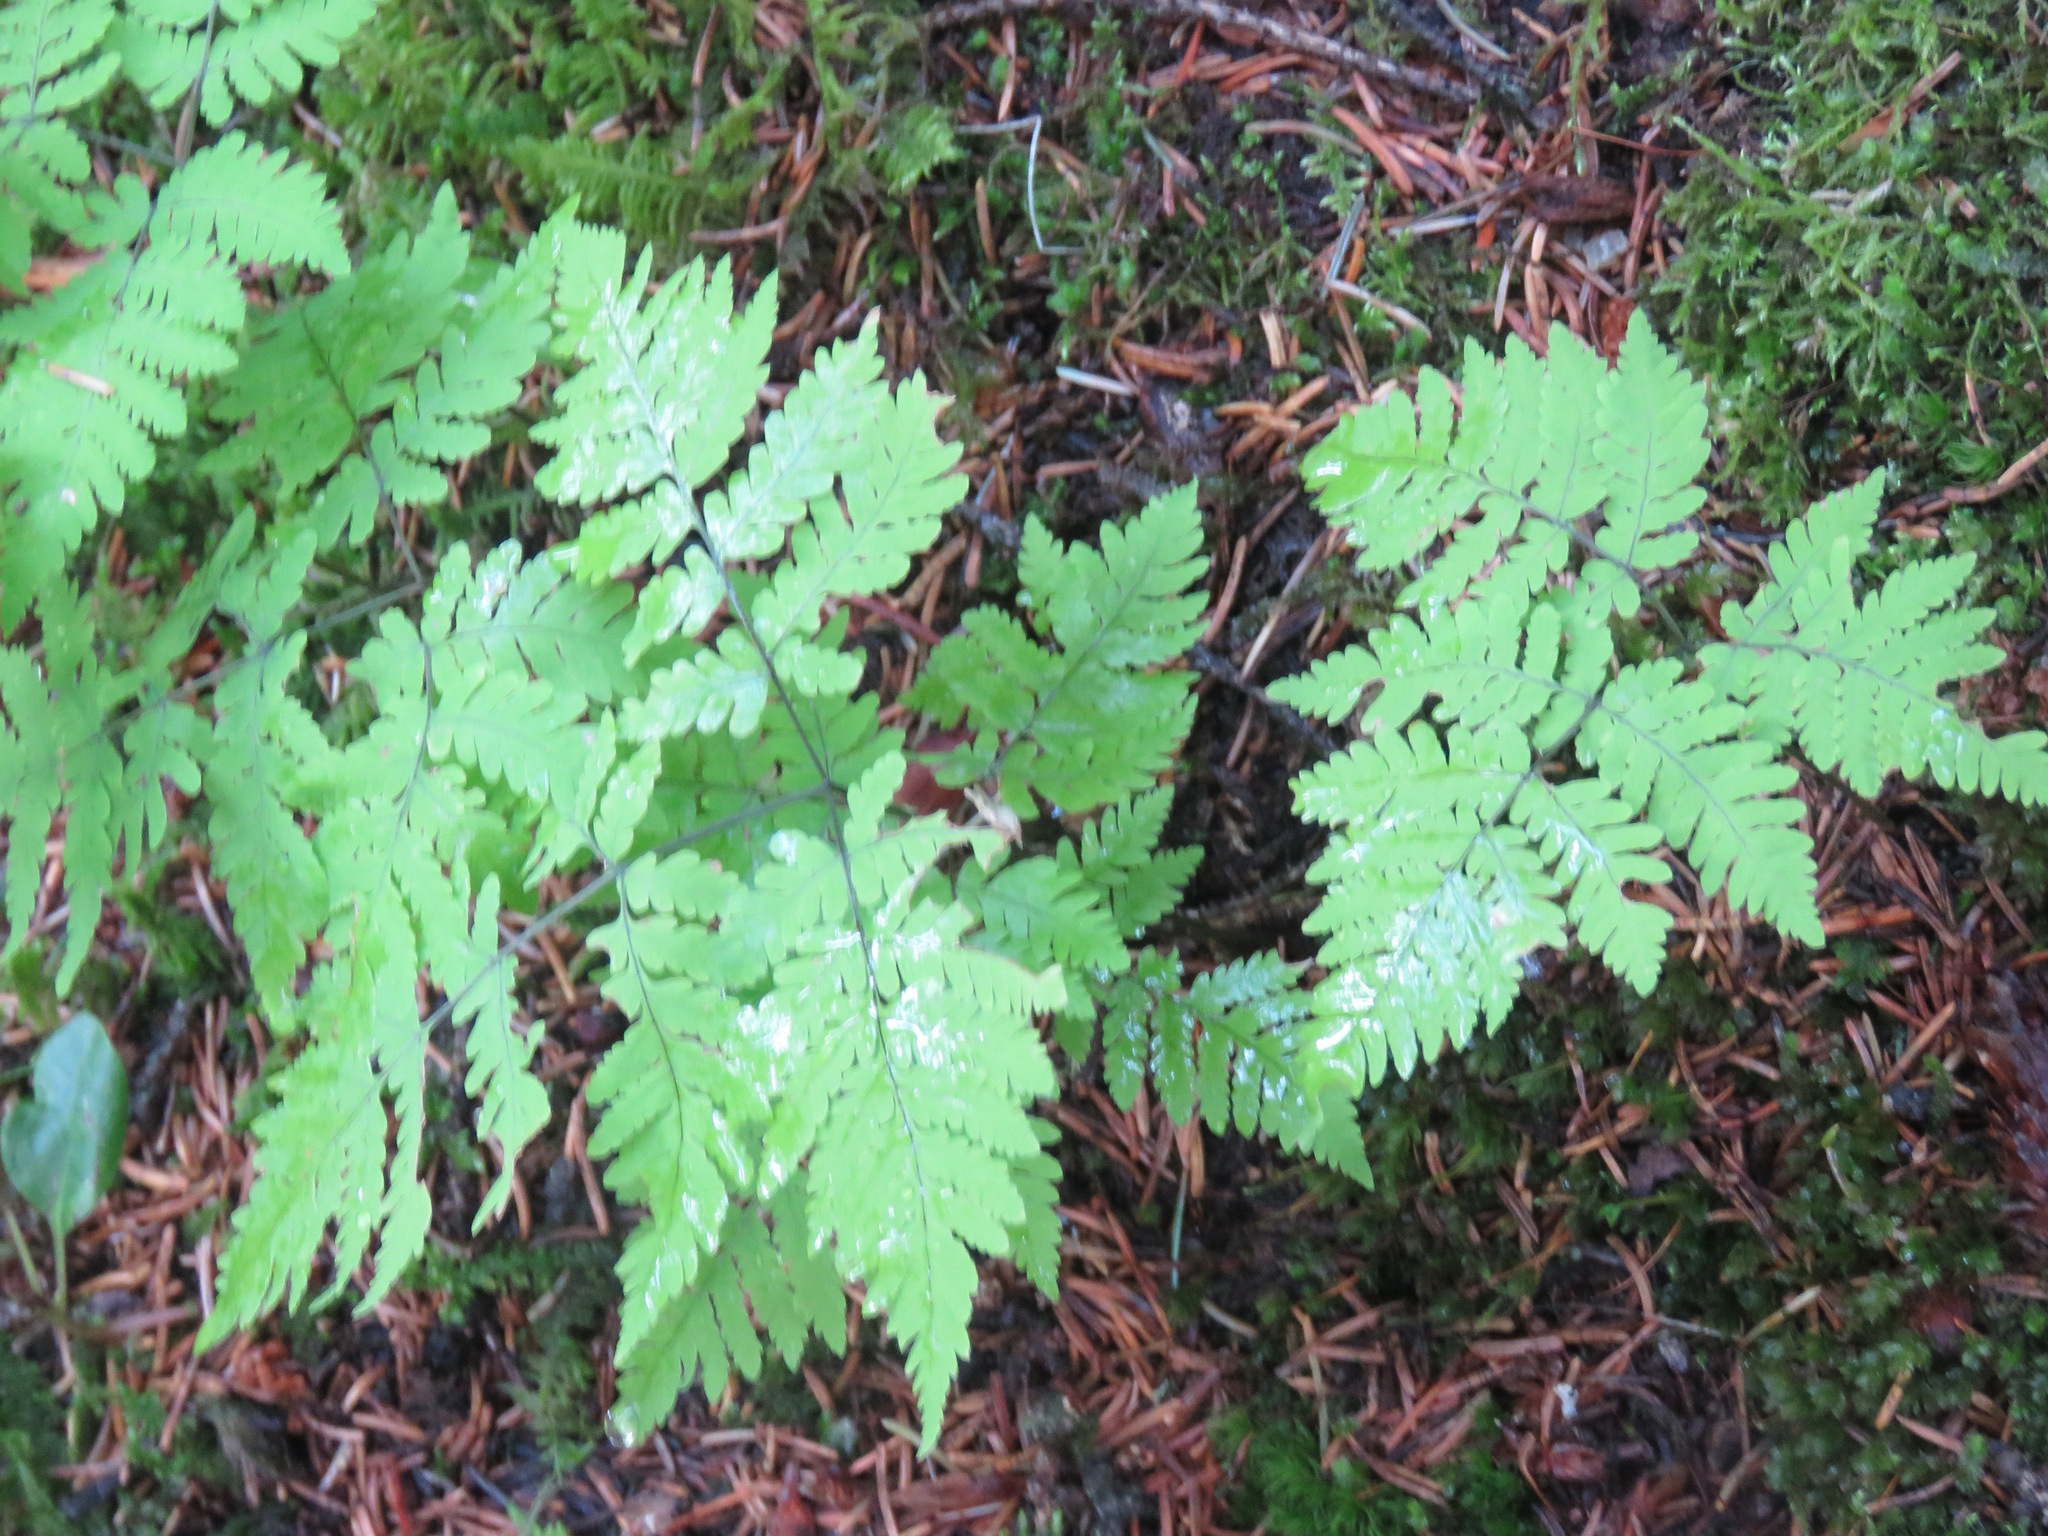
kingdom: Plantae
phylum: Tracheophyta
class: Polypodiopsida
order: Polypodiales
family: Cystopteridaceae
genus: Gymnocarpium
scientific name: Gymnocarpium dryopteris
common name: Oak fern
